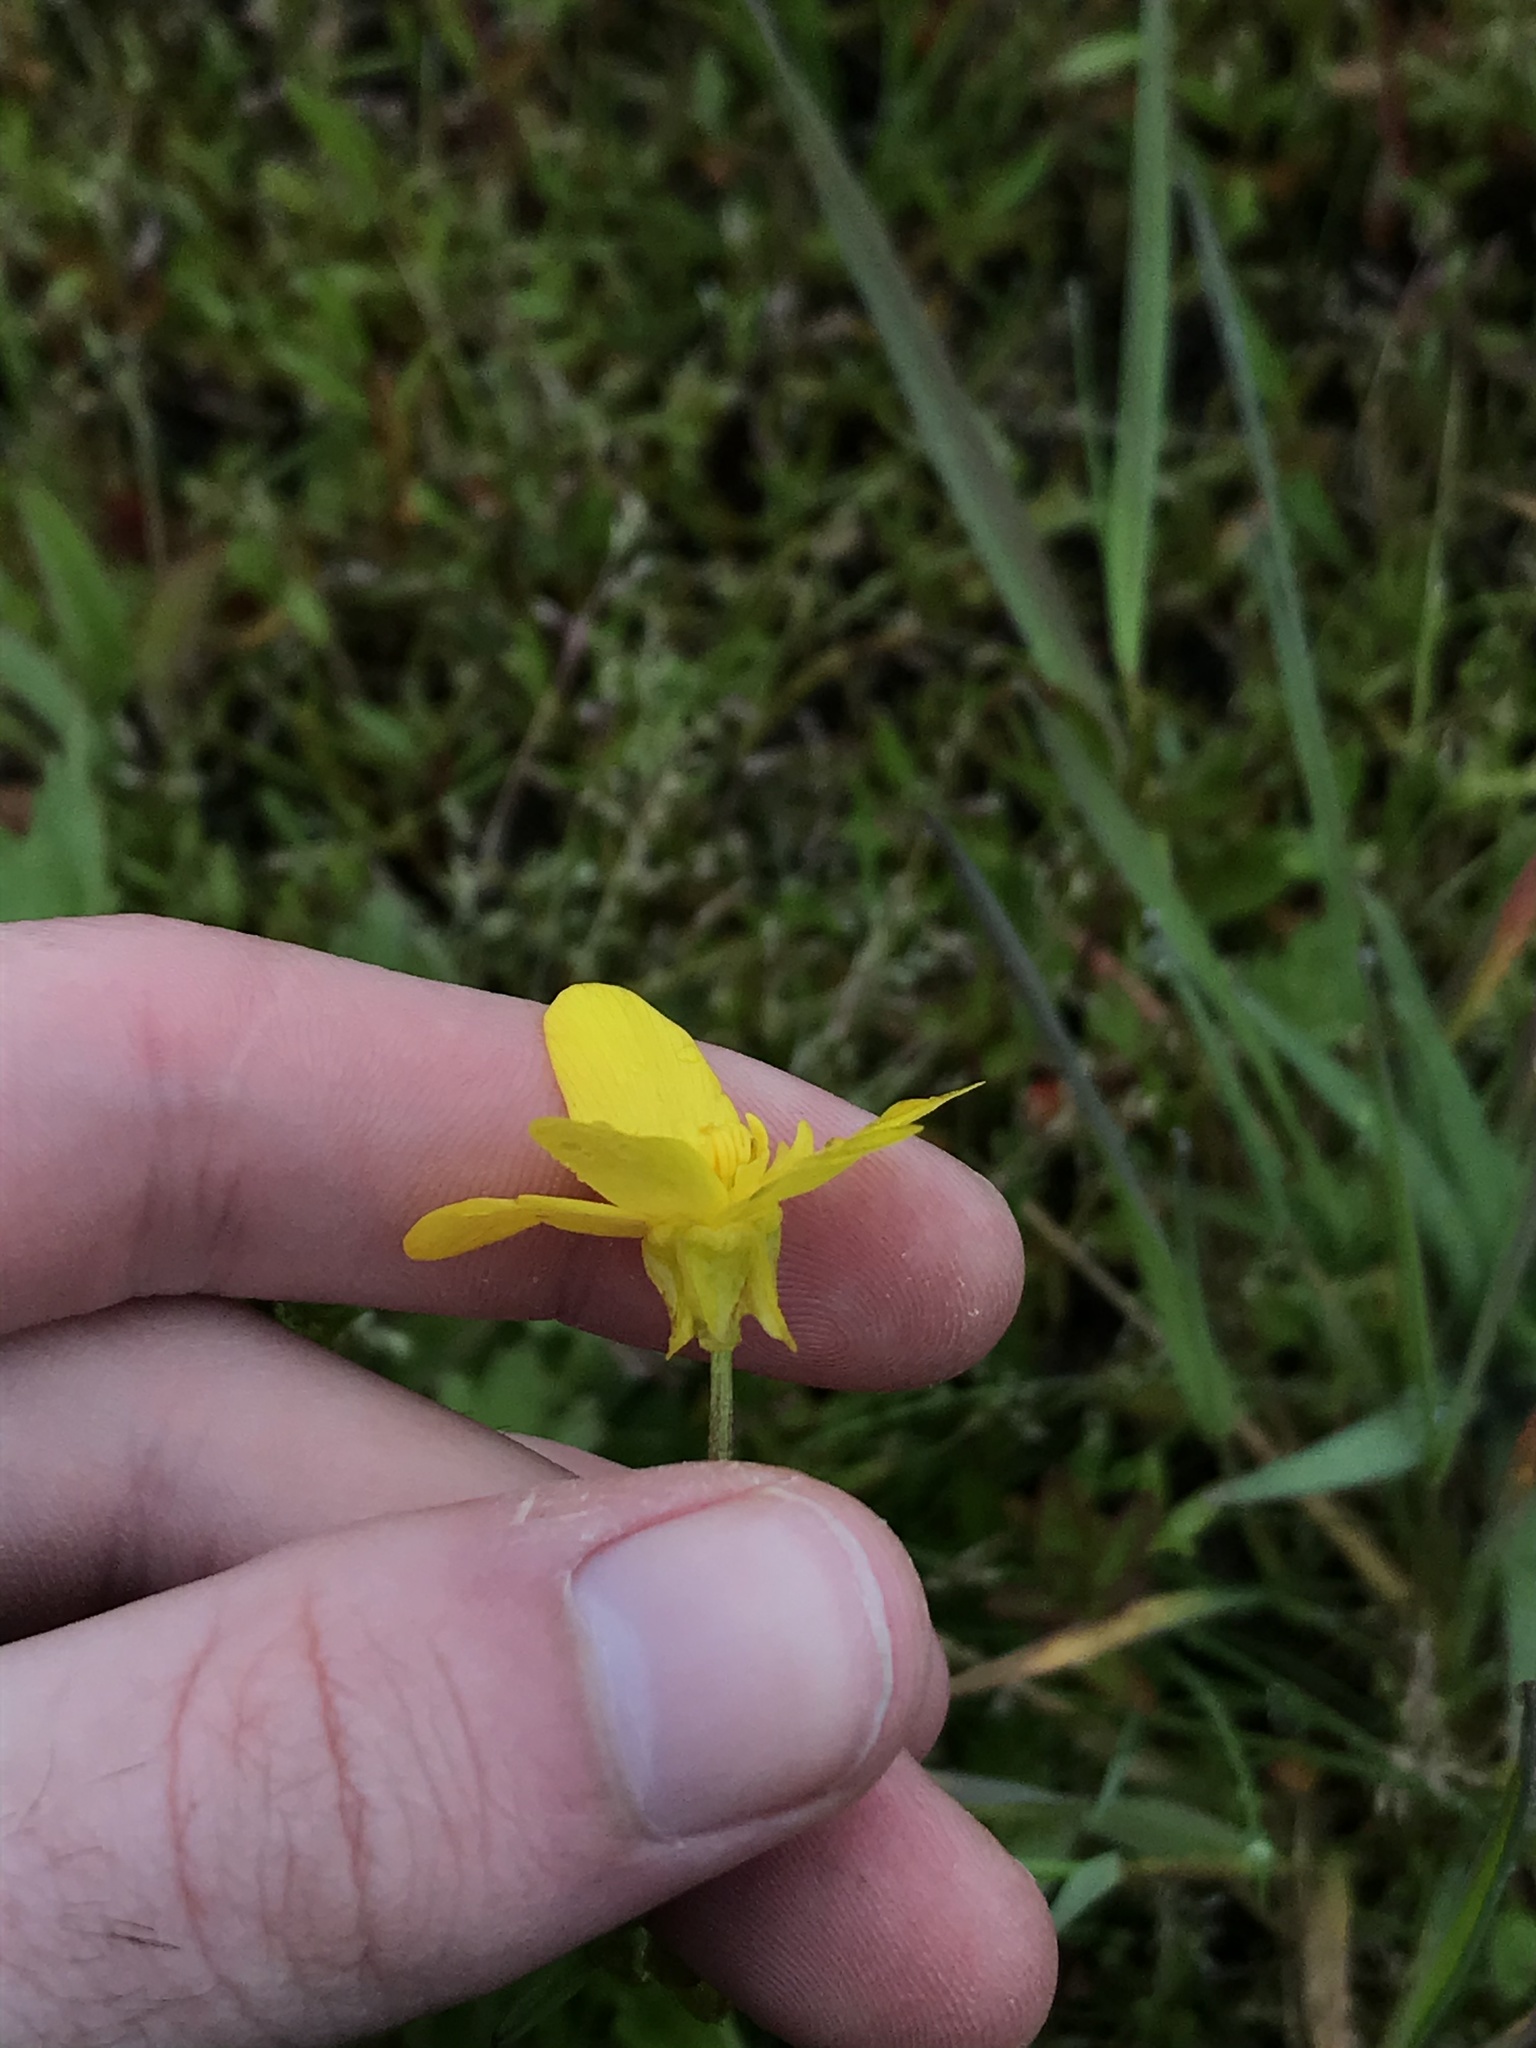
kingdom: Plantae
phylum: Tracheophyta
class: Magnoliopsida
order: Ranunculales
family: Ranunculaceae
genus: Ranunculus
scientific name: Ranunculus occidentalis
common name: Western buttercup
